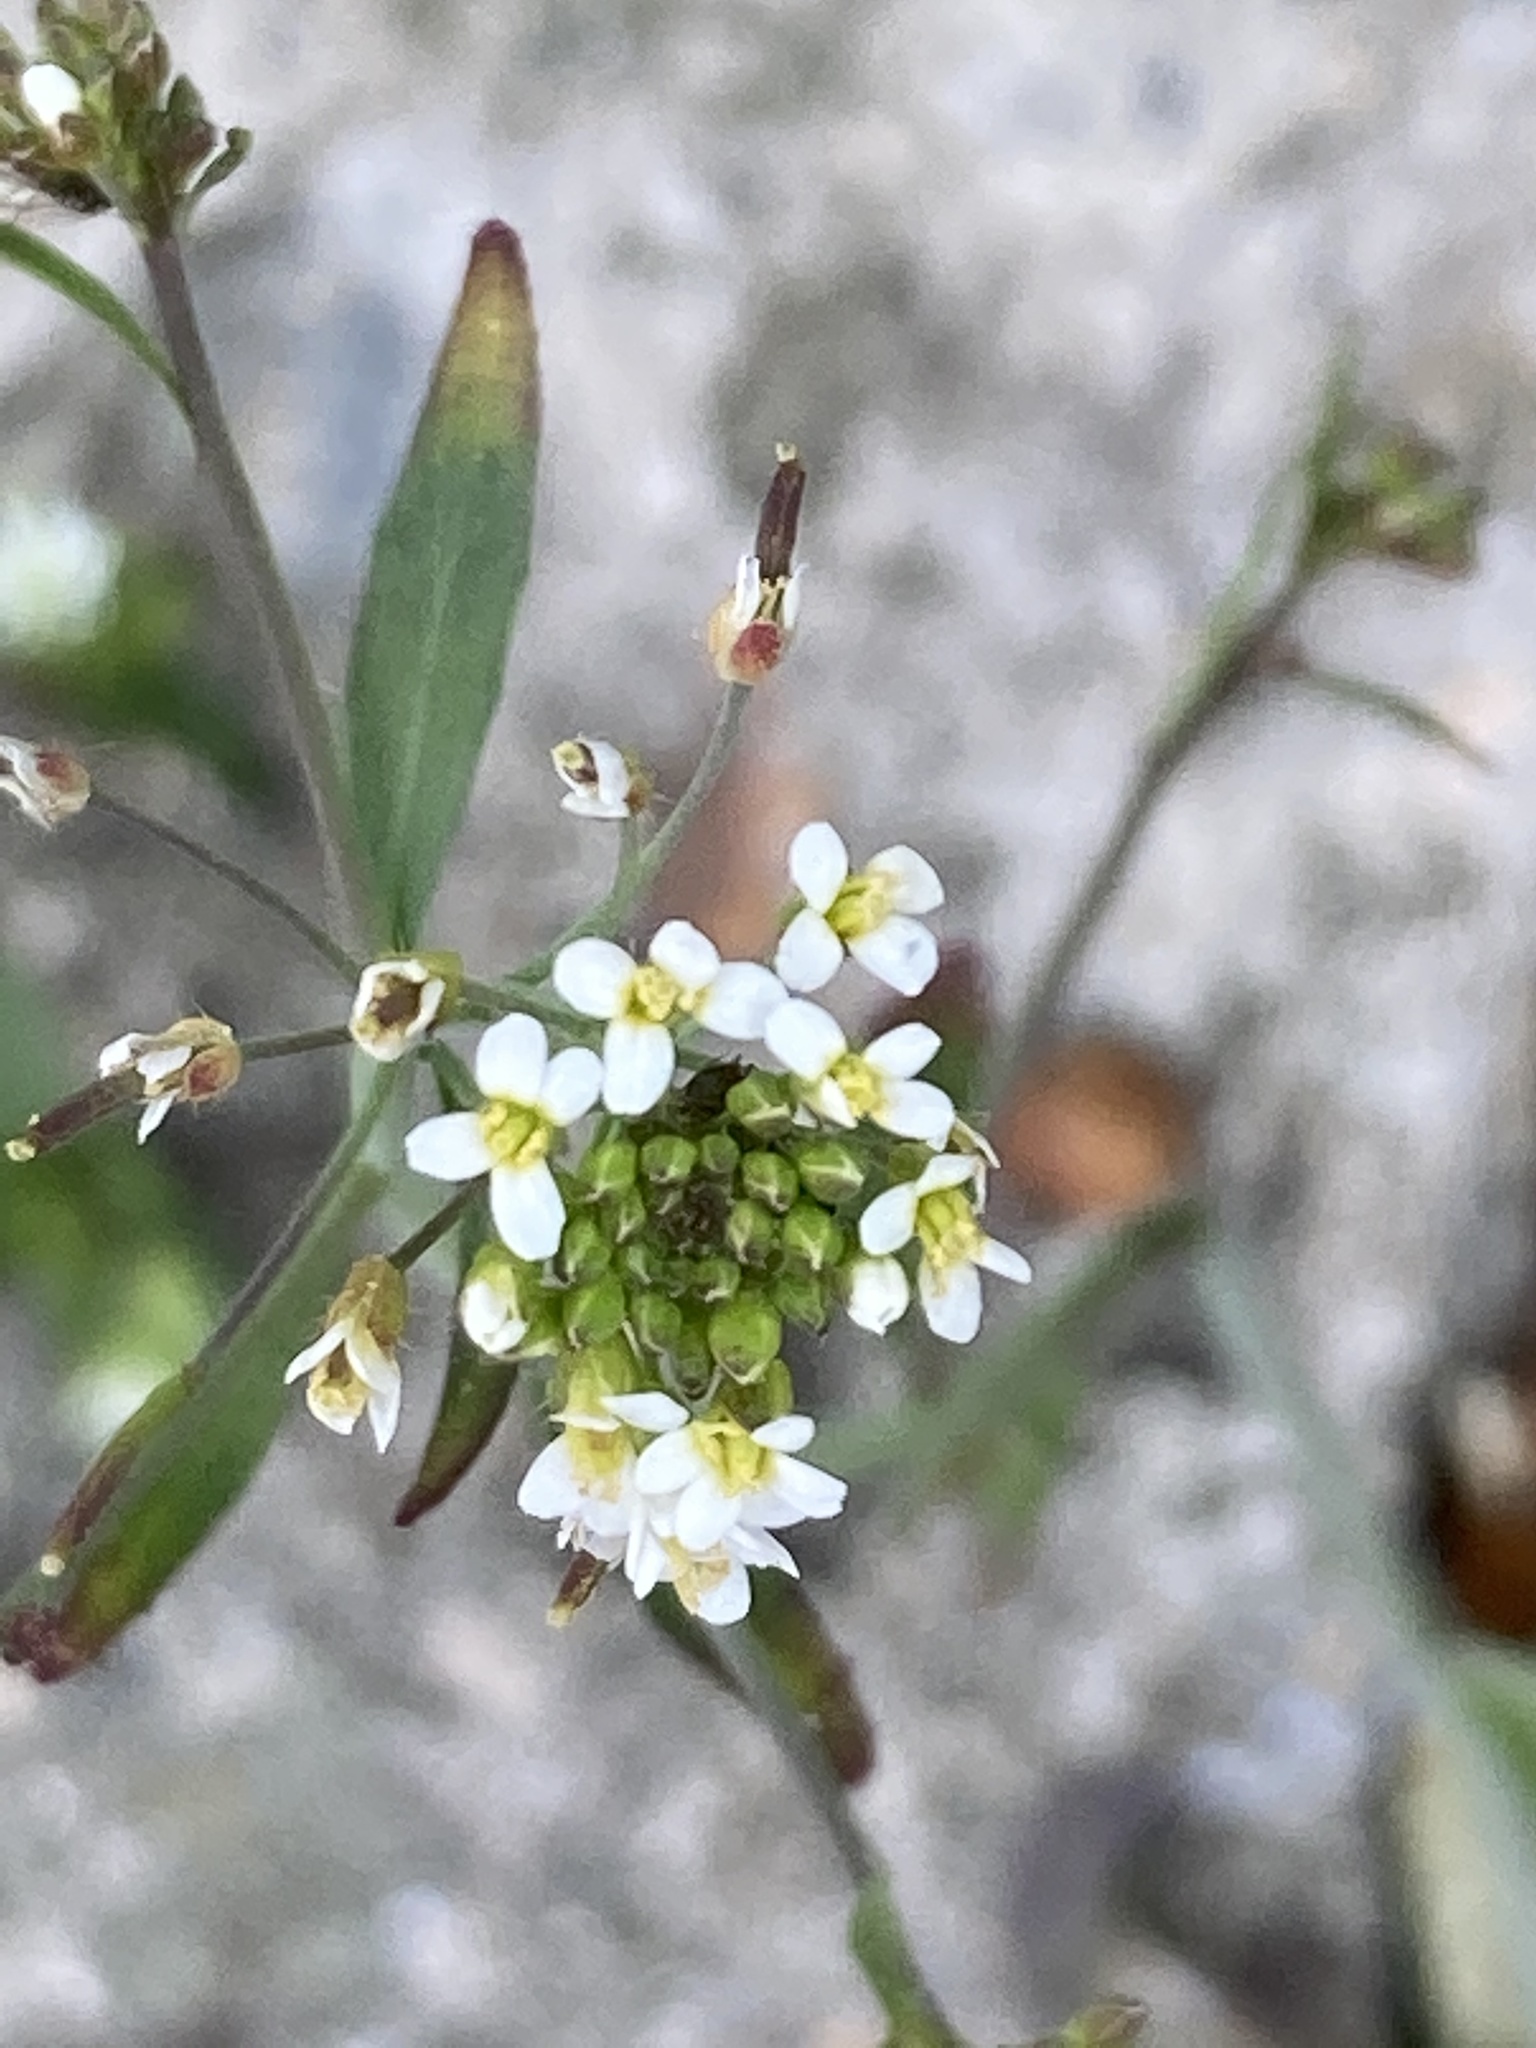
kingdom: Plantae
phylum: Tracheophyta
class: Magnoliopsida
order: Brassicales
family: Brassicaceae
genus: Arabidopsis
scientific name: Arabidopsis thaliana
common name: Thale cress
